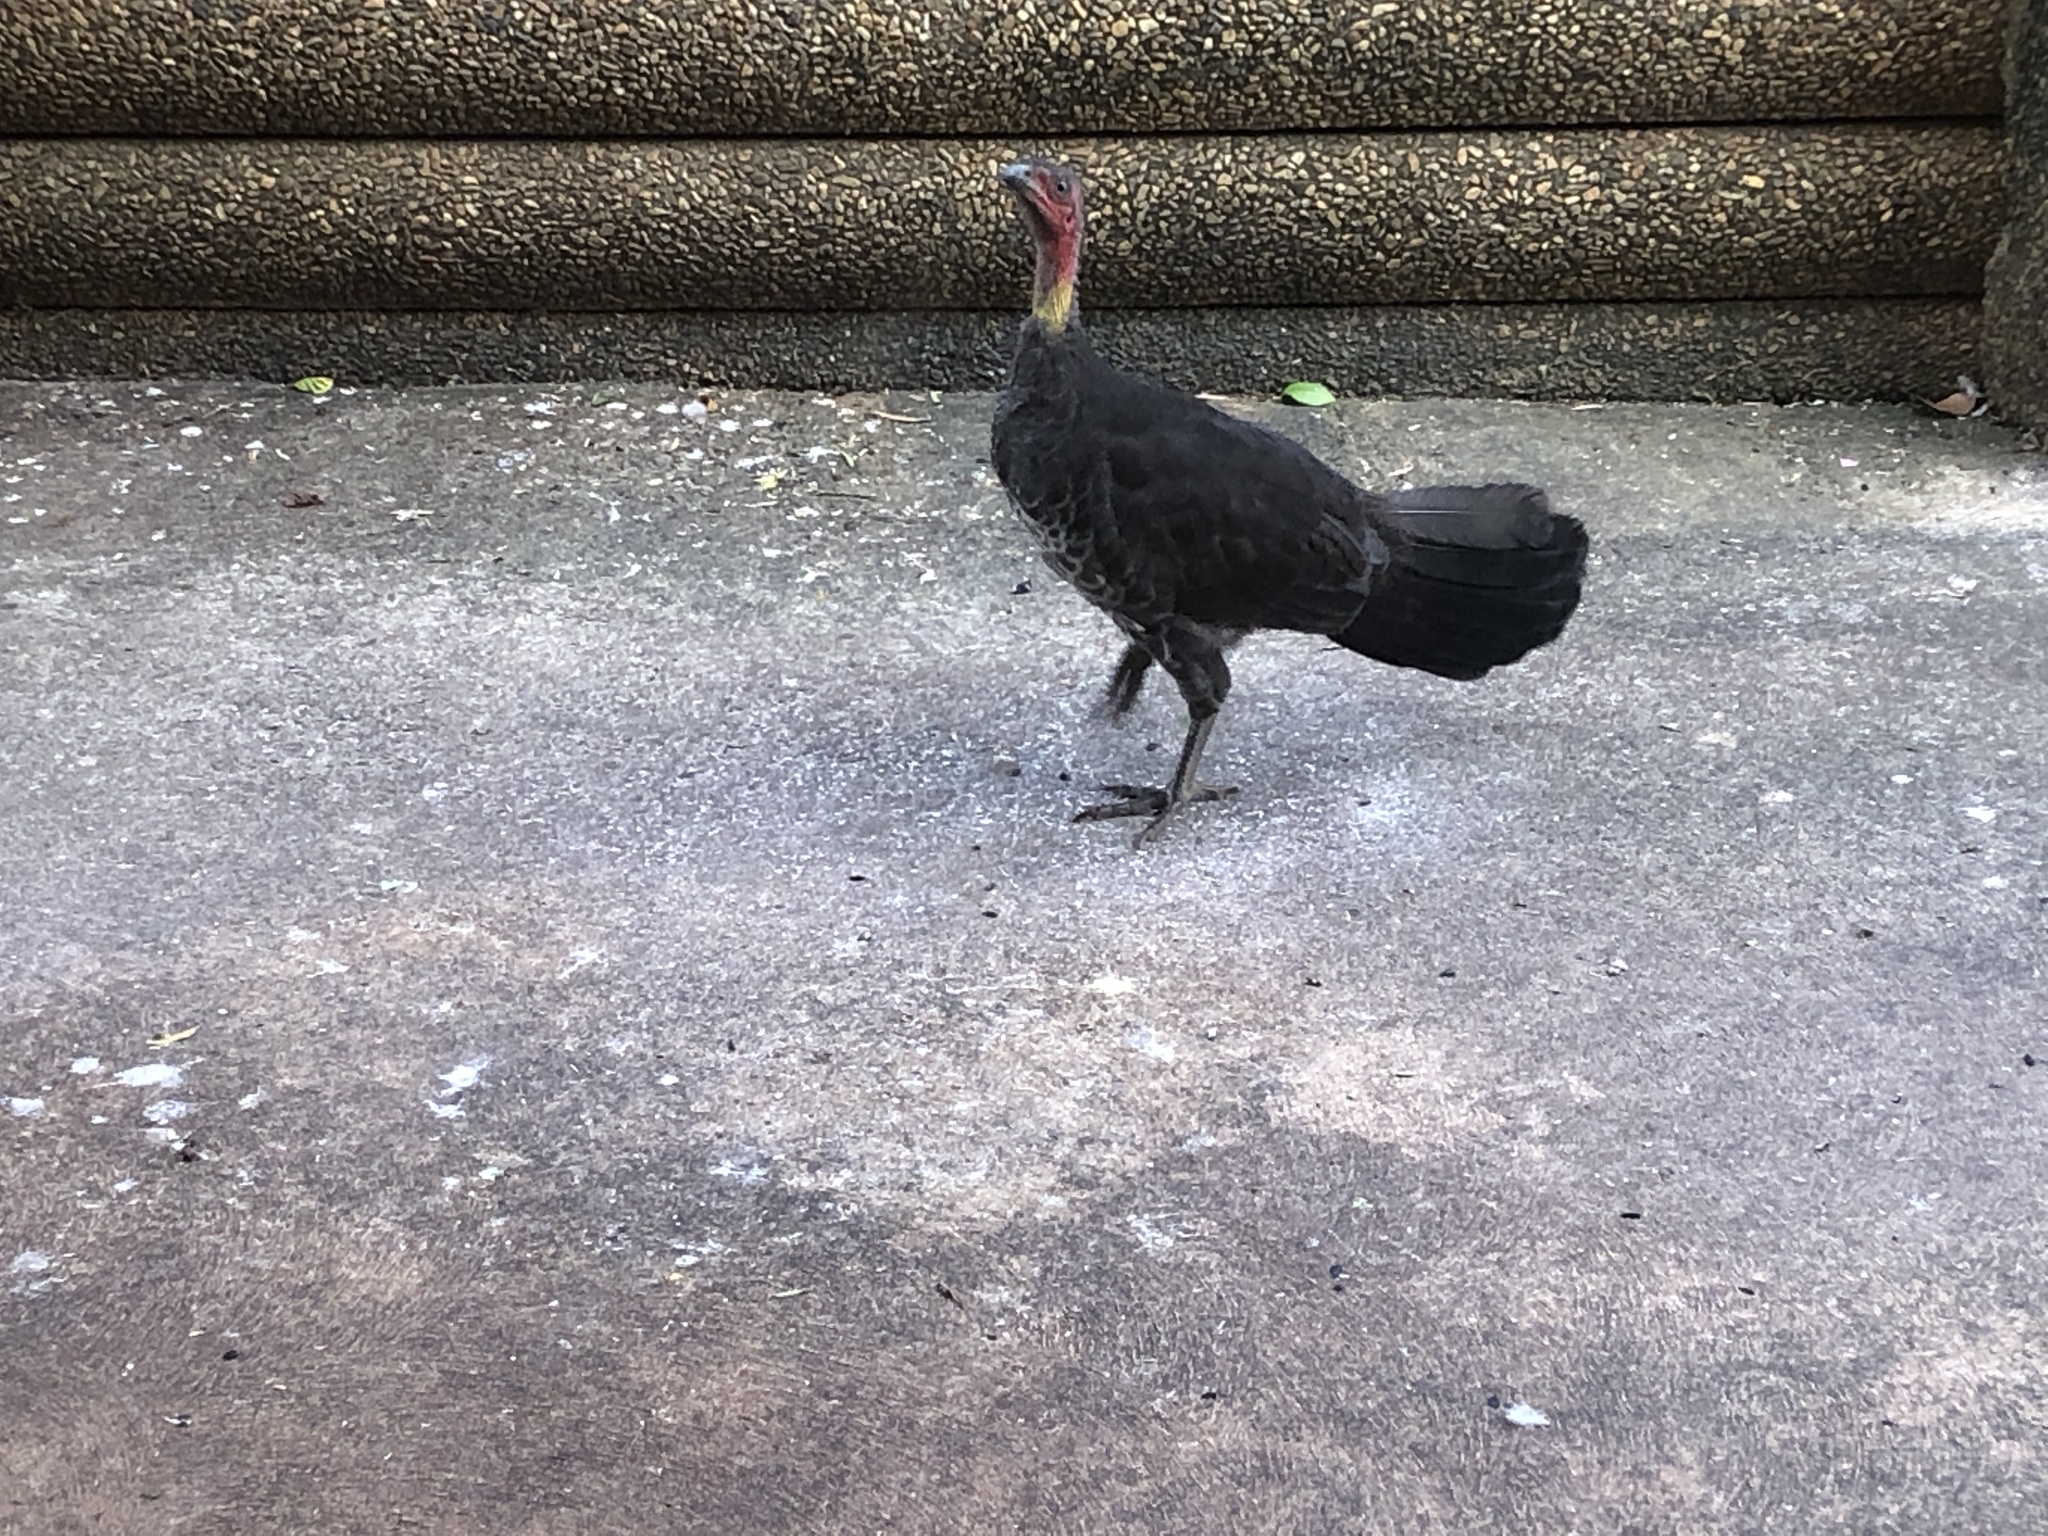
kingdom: Animalia
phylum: Chordata
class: Aves
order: Galliformes
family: Megapodiidae
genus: Alectura
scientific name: Alectura lathami
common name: Australian brushturkey
